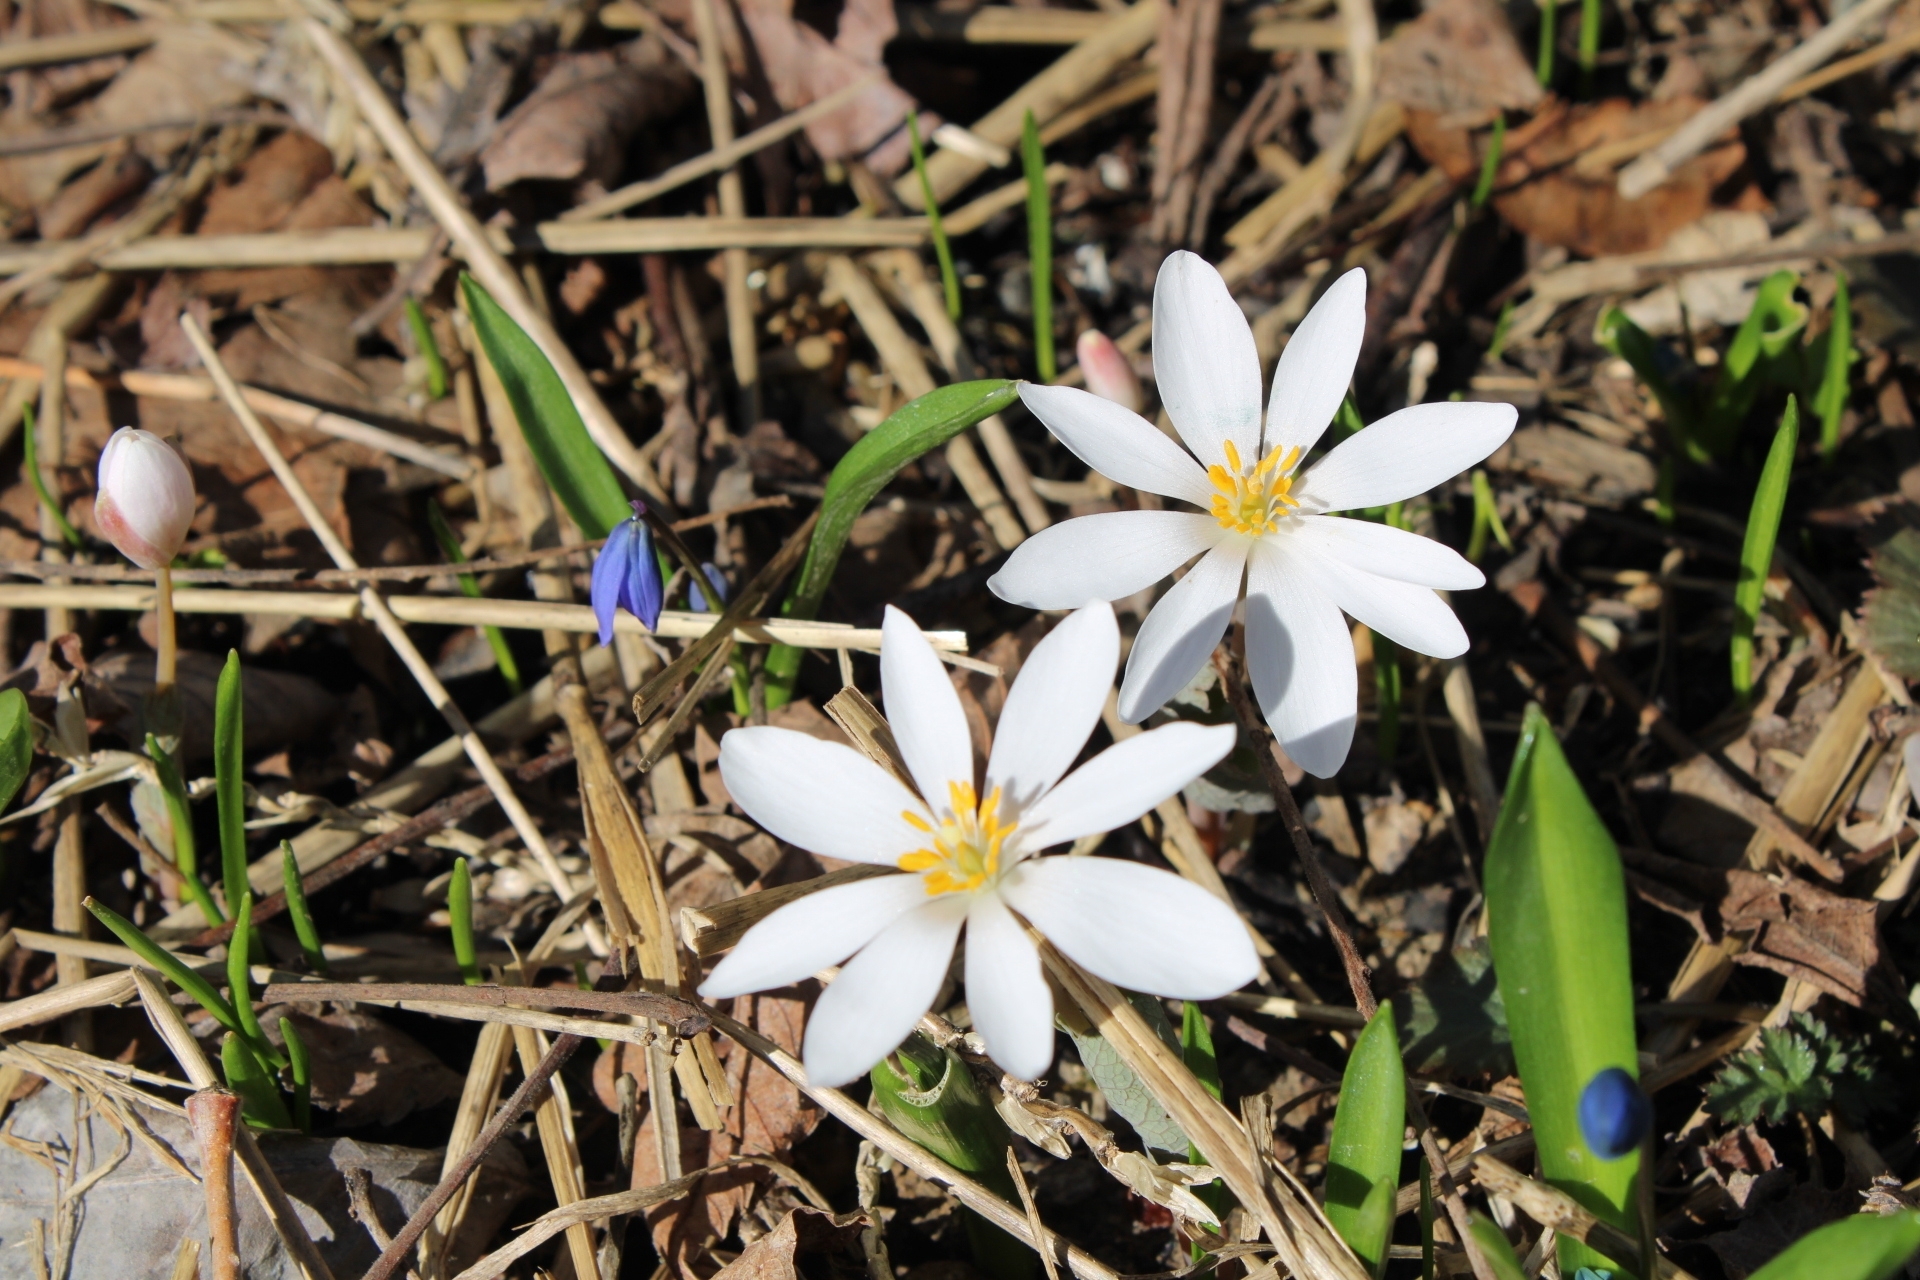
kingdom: Plantae
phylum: Tracheophyta
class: Magnoliopsida
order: Ranunculales
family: Papaveraceae
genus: Sanguinaria
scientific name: Sanguinaria canadensis
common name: Bloodroot
